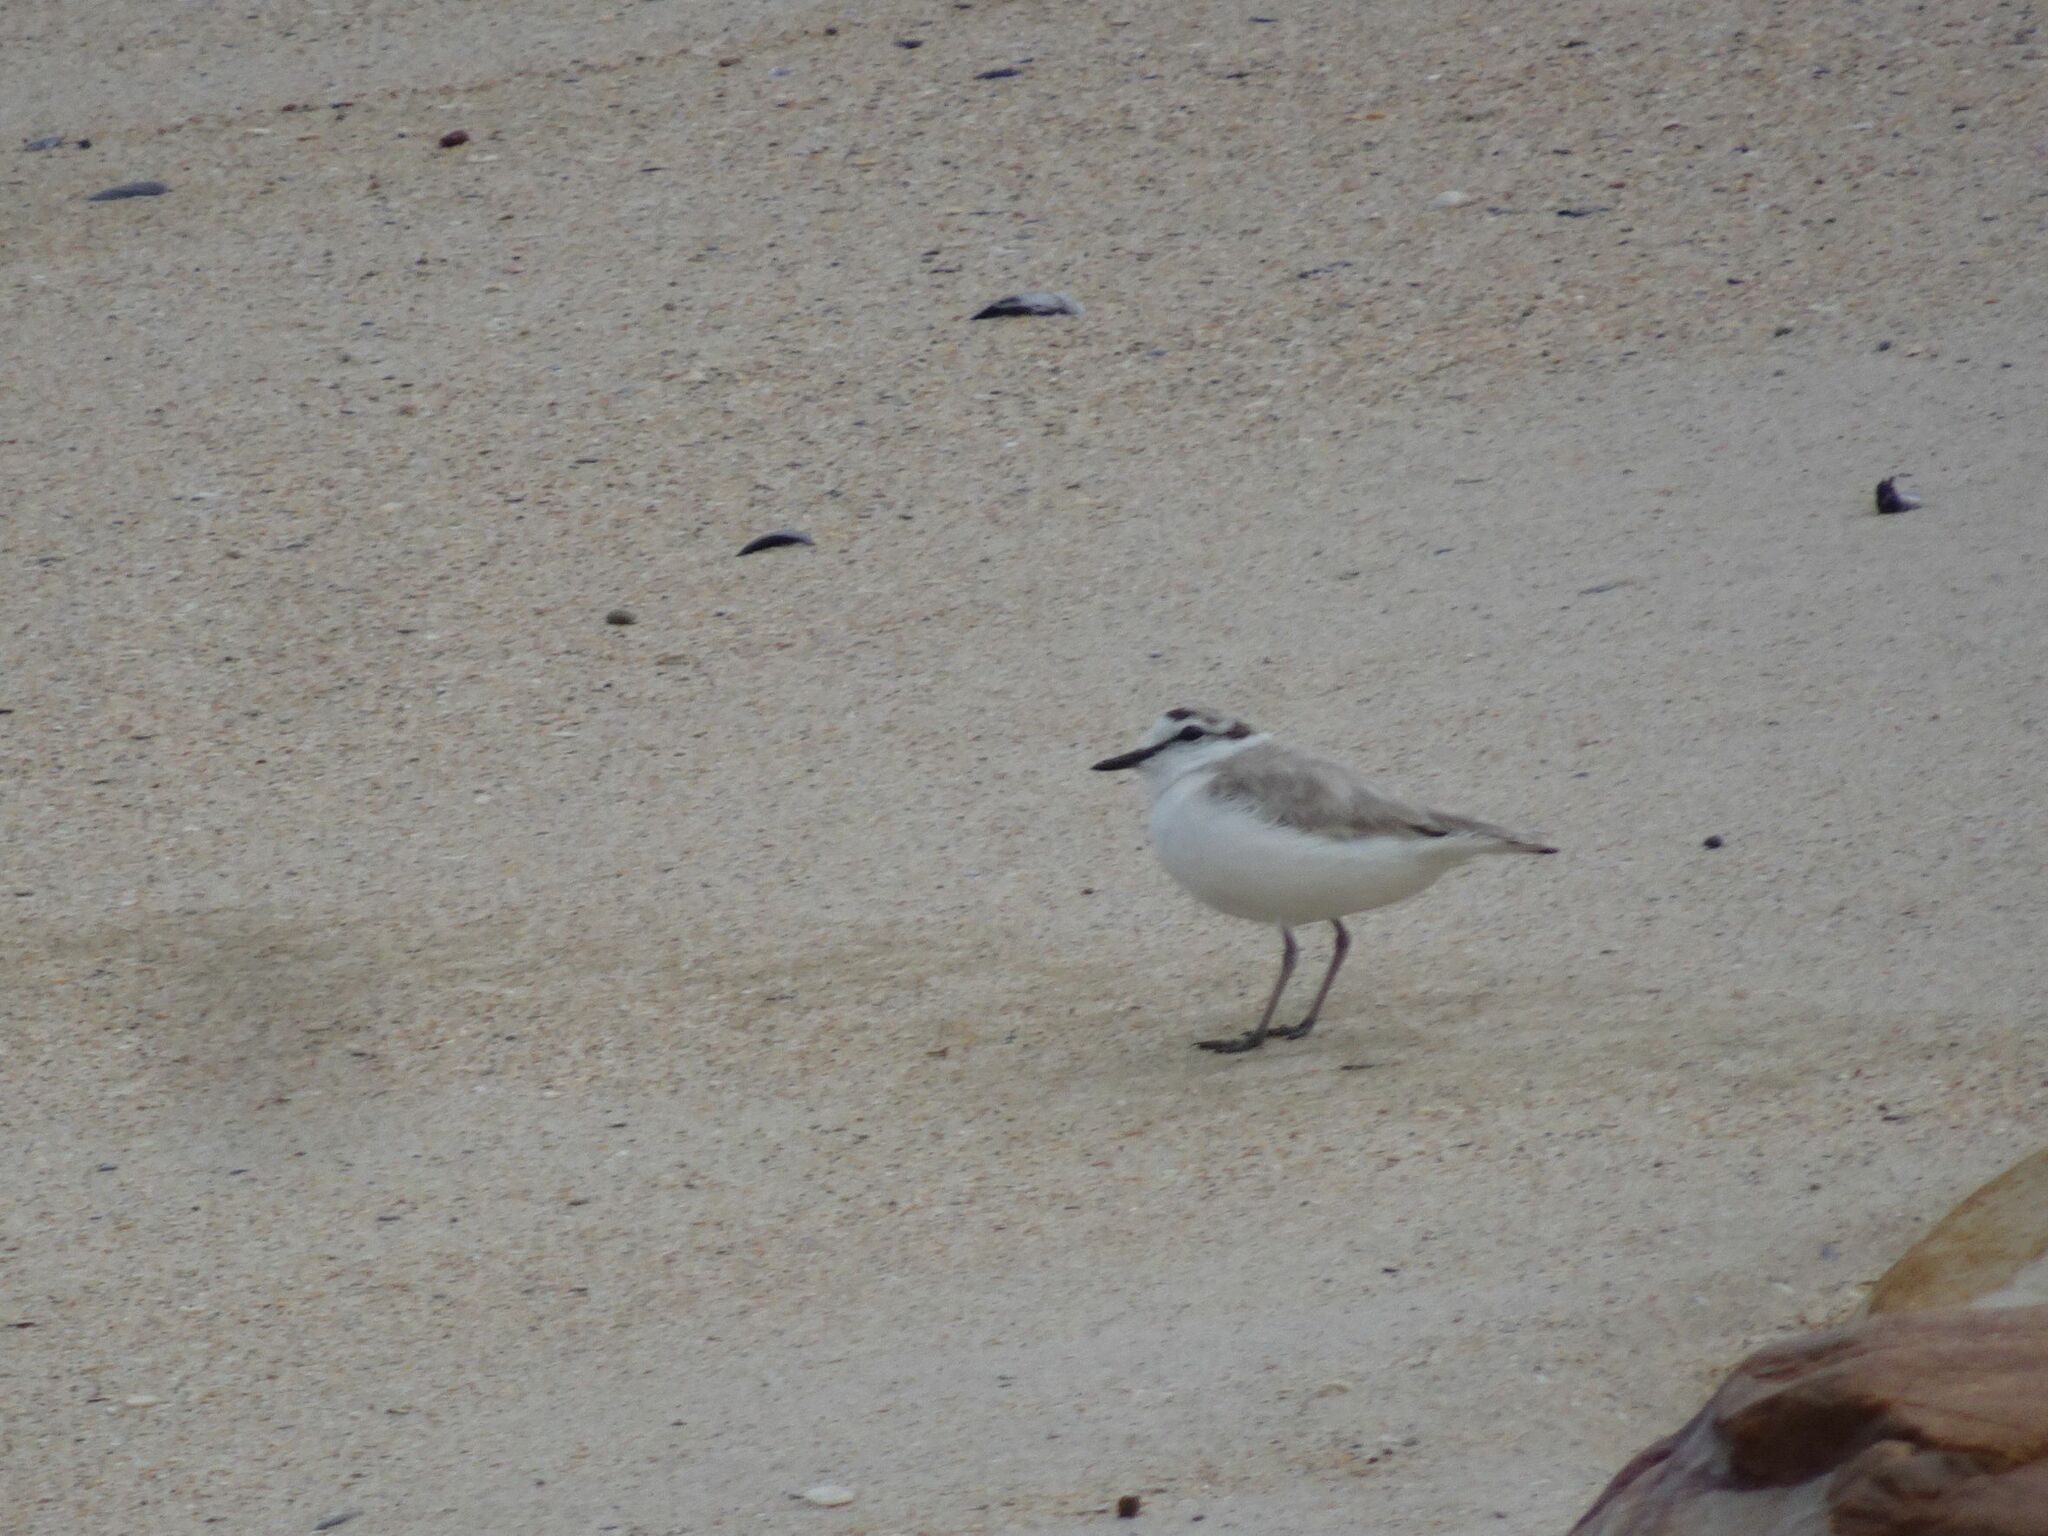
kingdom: Animalia
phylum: Chordata
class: Aves
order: Charadriiformes
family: Charadriidae
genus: Anarhynchus
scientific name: Anarhynchus
